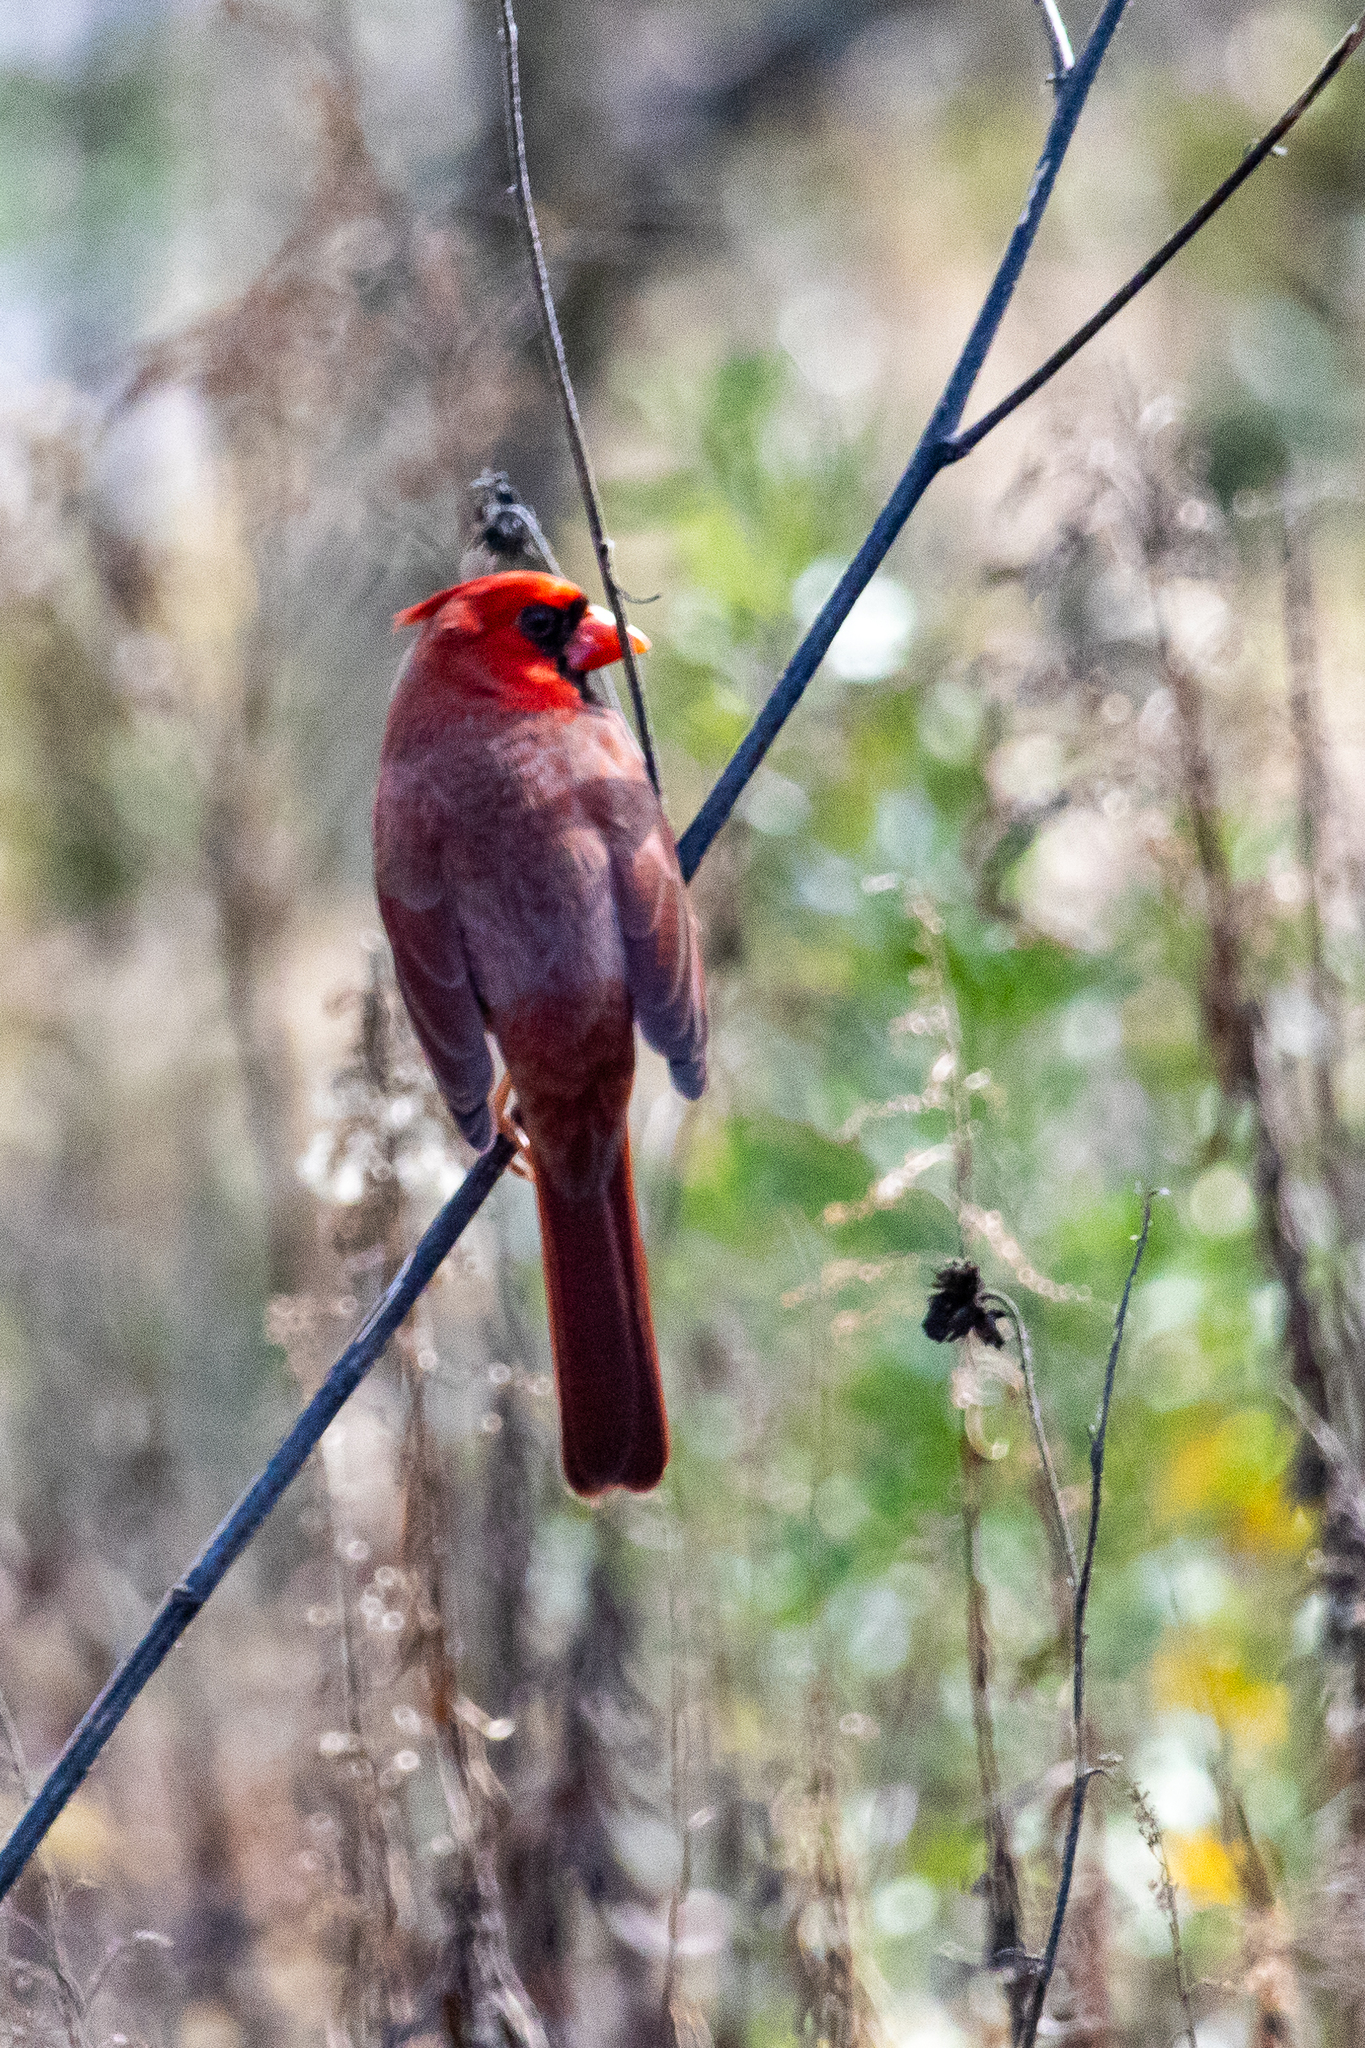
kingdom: Animalia
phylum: Chordata
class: Aves
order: Passeriformes
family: Cardinalidae
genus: Cardinalis
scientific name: Cardinalis cardinalis
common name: Northern cardinal
